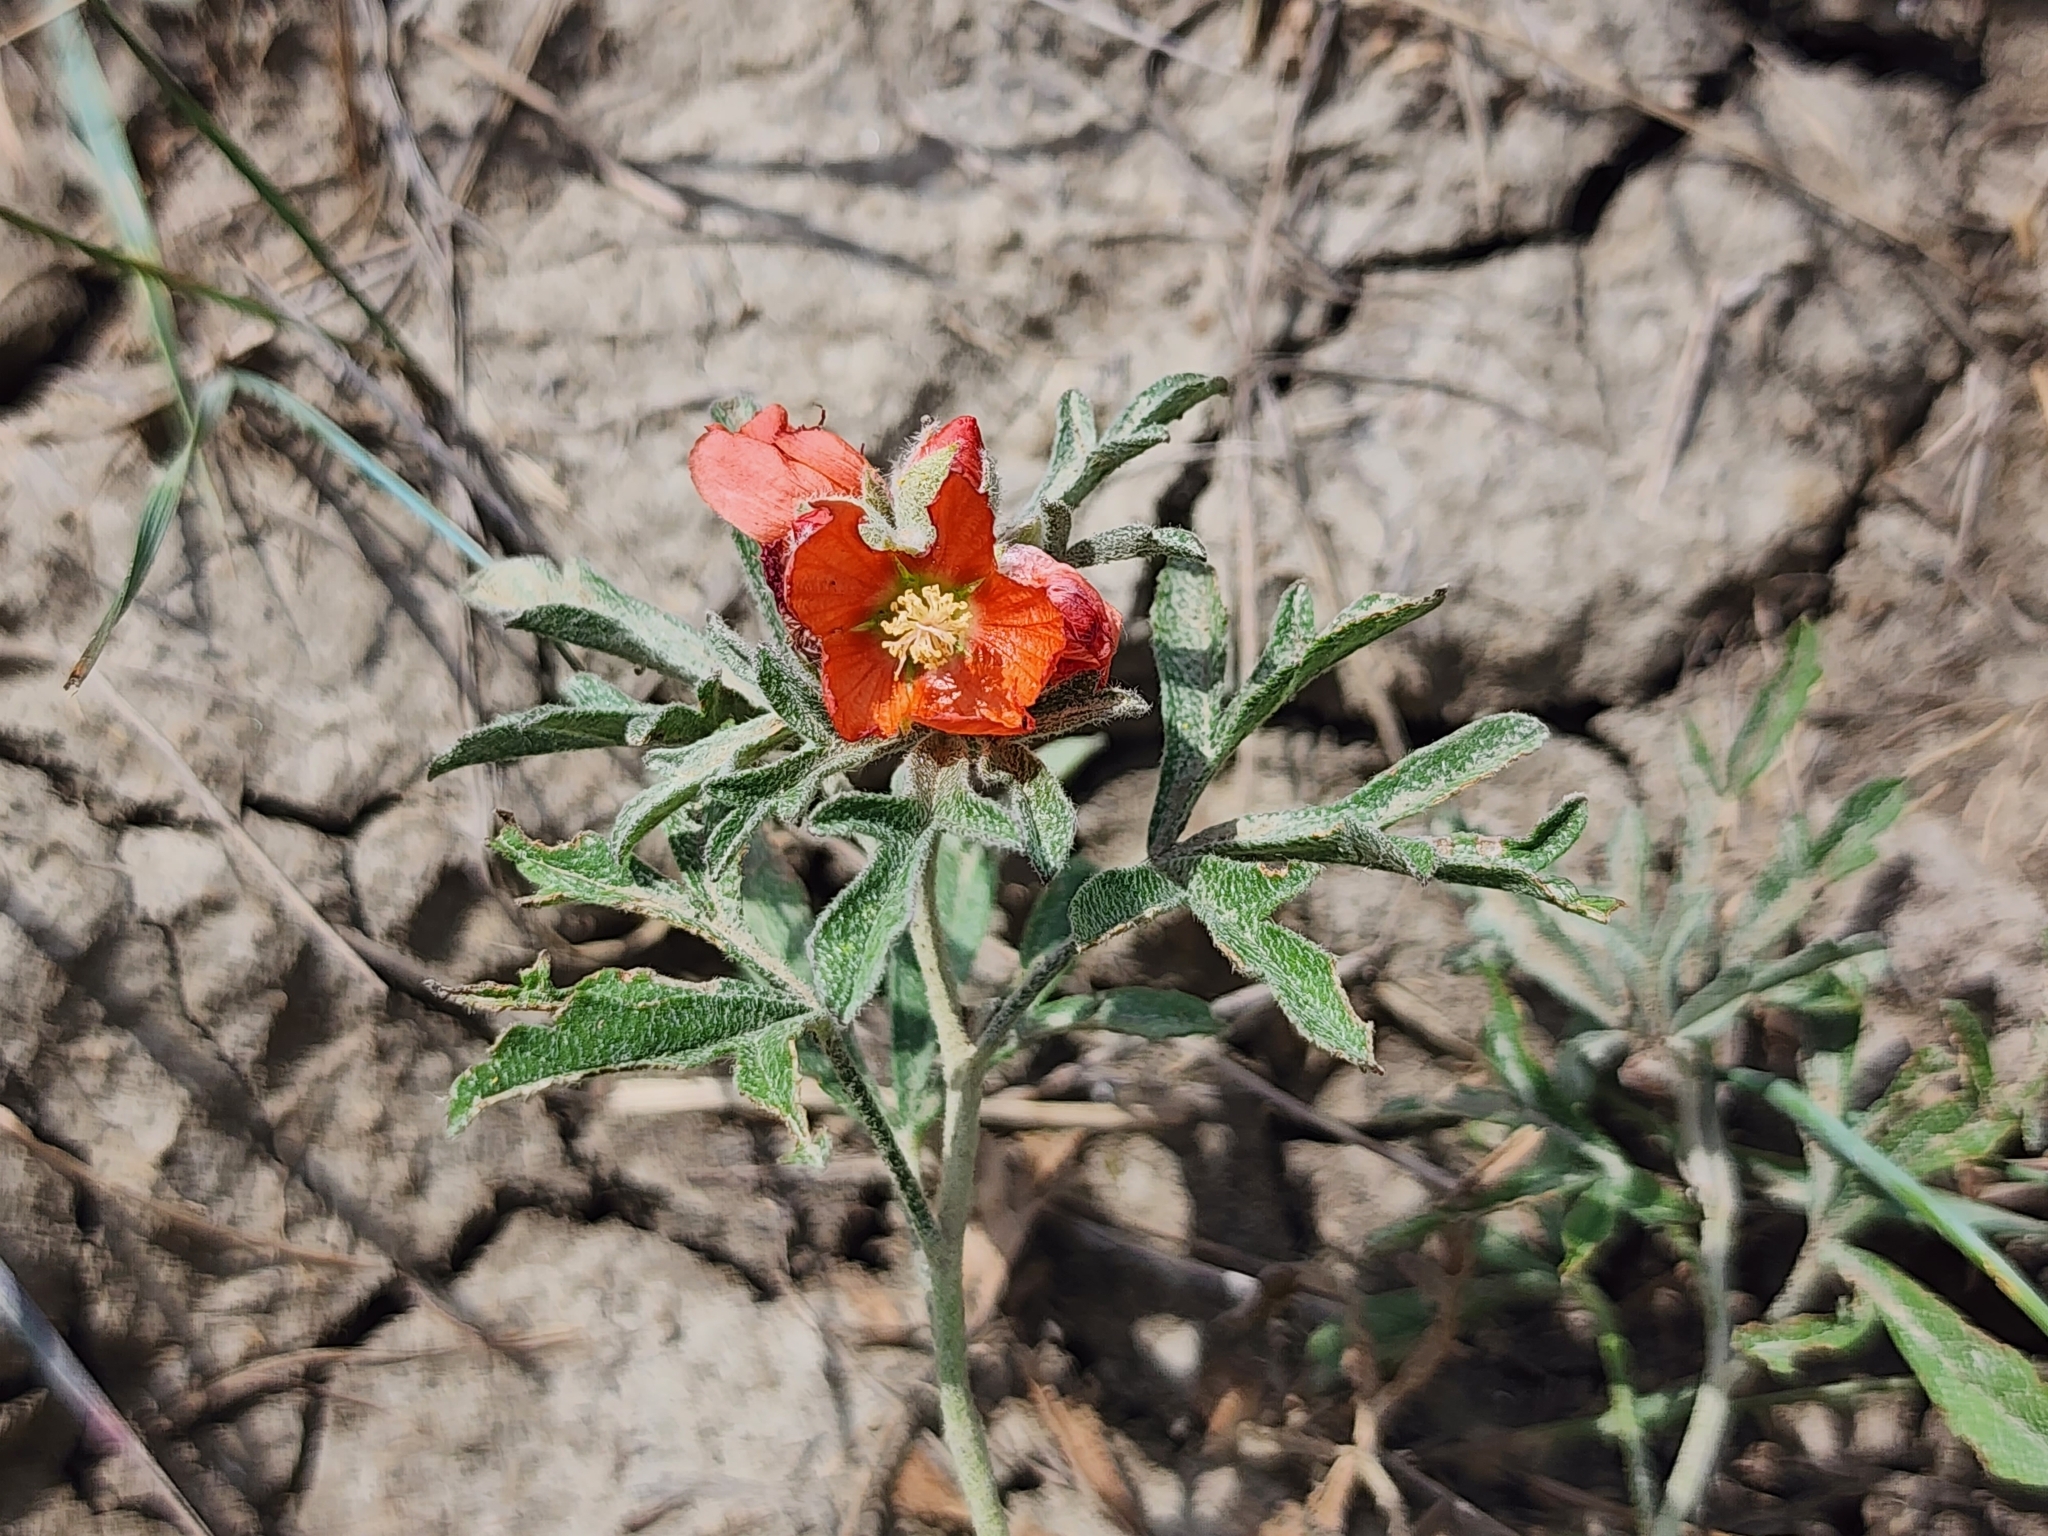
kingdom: Plantae
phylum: Tracheophyta
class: Magnoliopsida
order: Malvales
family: Malvaceae
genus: Sphaeralcea
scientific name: Sphaeralcea coccinea
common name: Moss-rose
